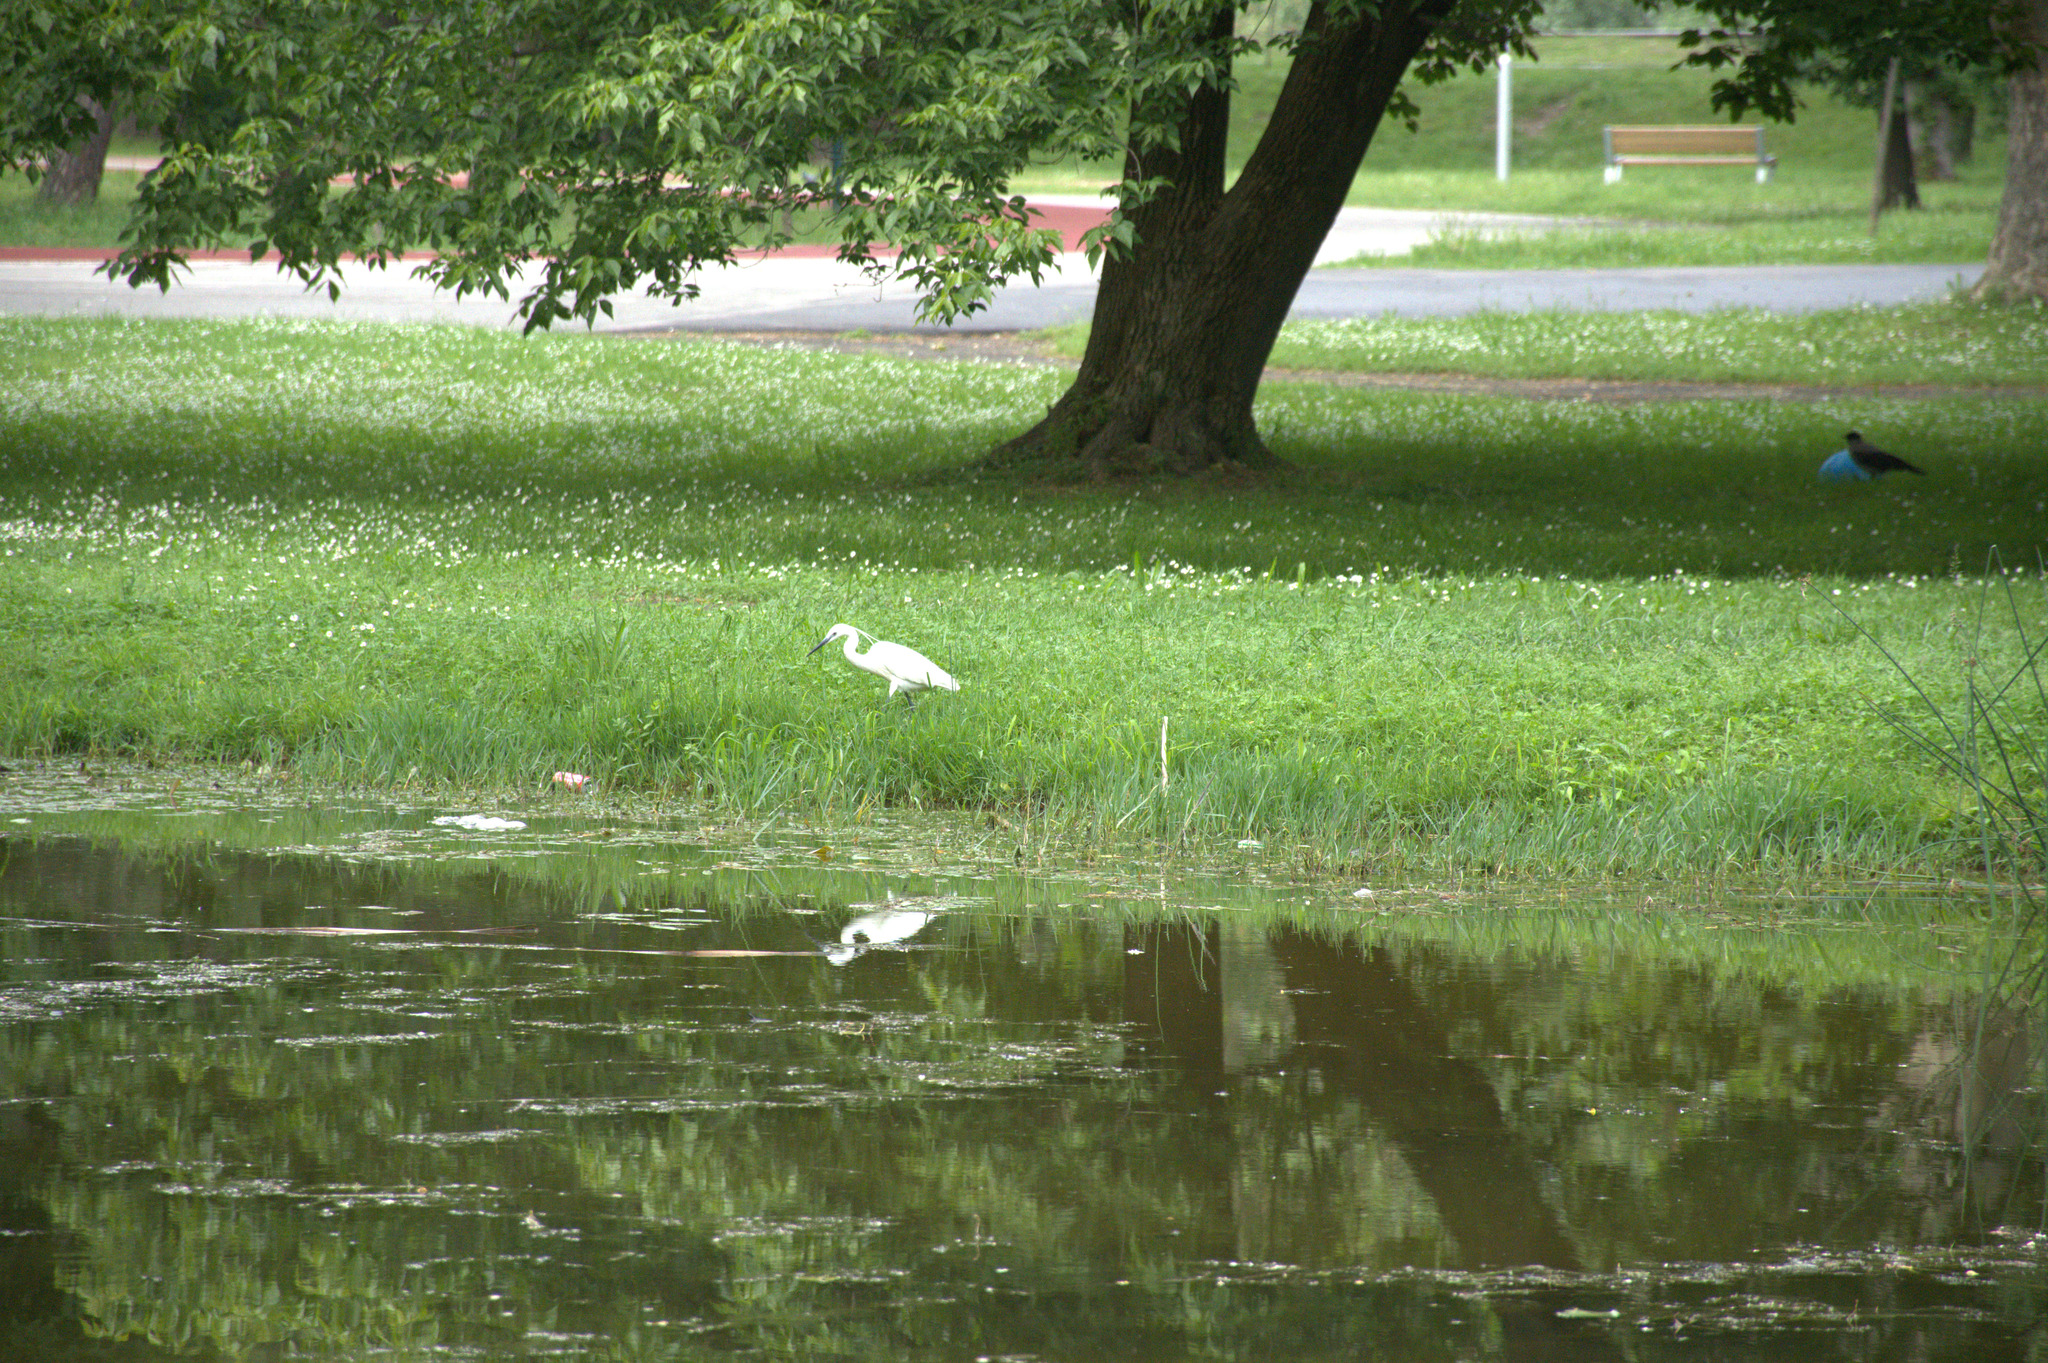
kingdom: Animalia
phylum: Chordata
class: Aves
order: Pelecaniformes
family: Ardeidae
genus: Egretta
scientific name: Egretta garzetta
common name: Little egret
